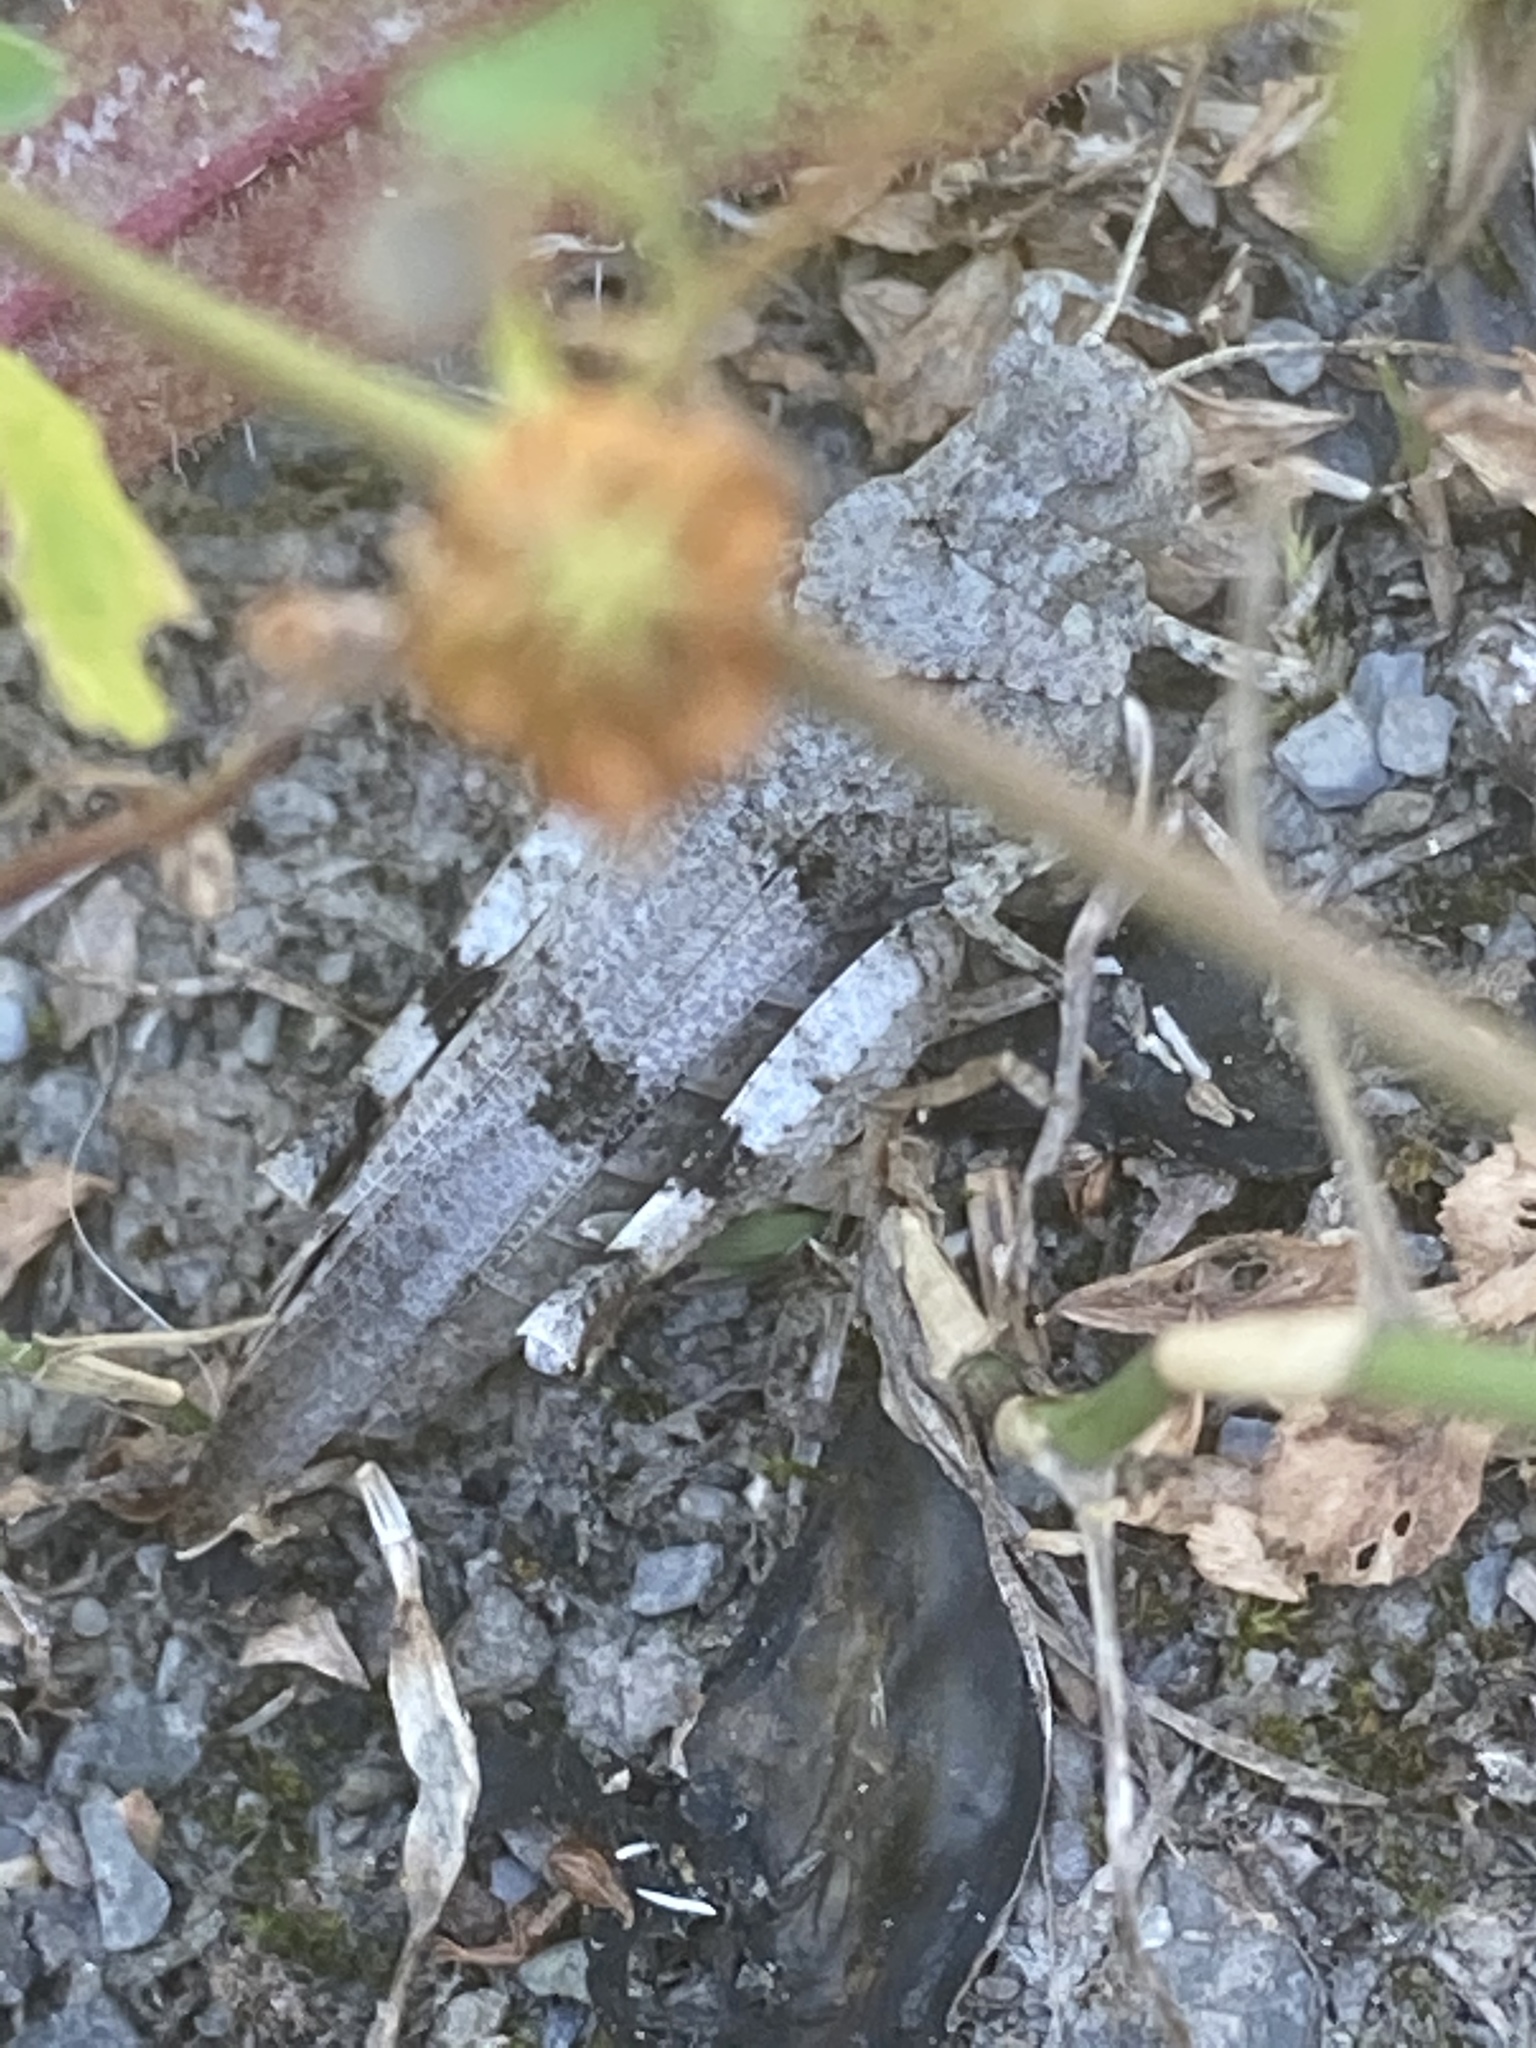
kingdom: Animalia
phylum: Arthropoda
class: Insecta
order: Orthoptera
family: Acrididae
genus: Oedipoda
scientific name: Oedipoda caerulescens
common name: Blue-winged grasshopper
